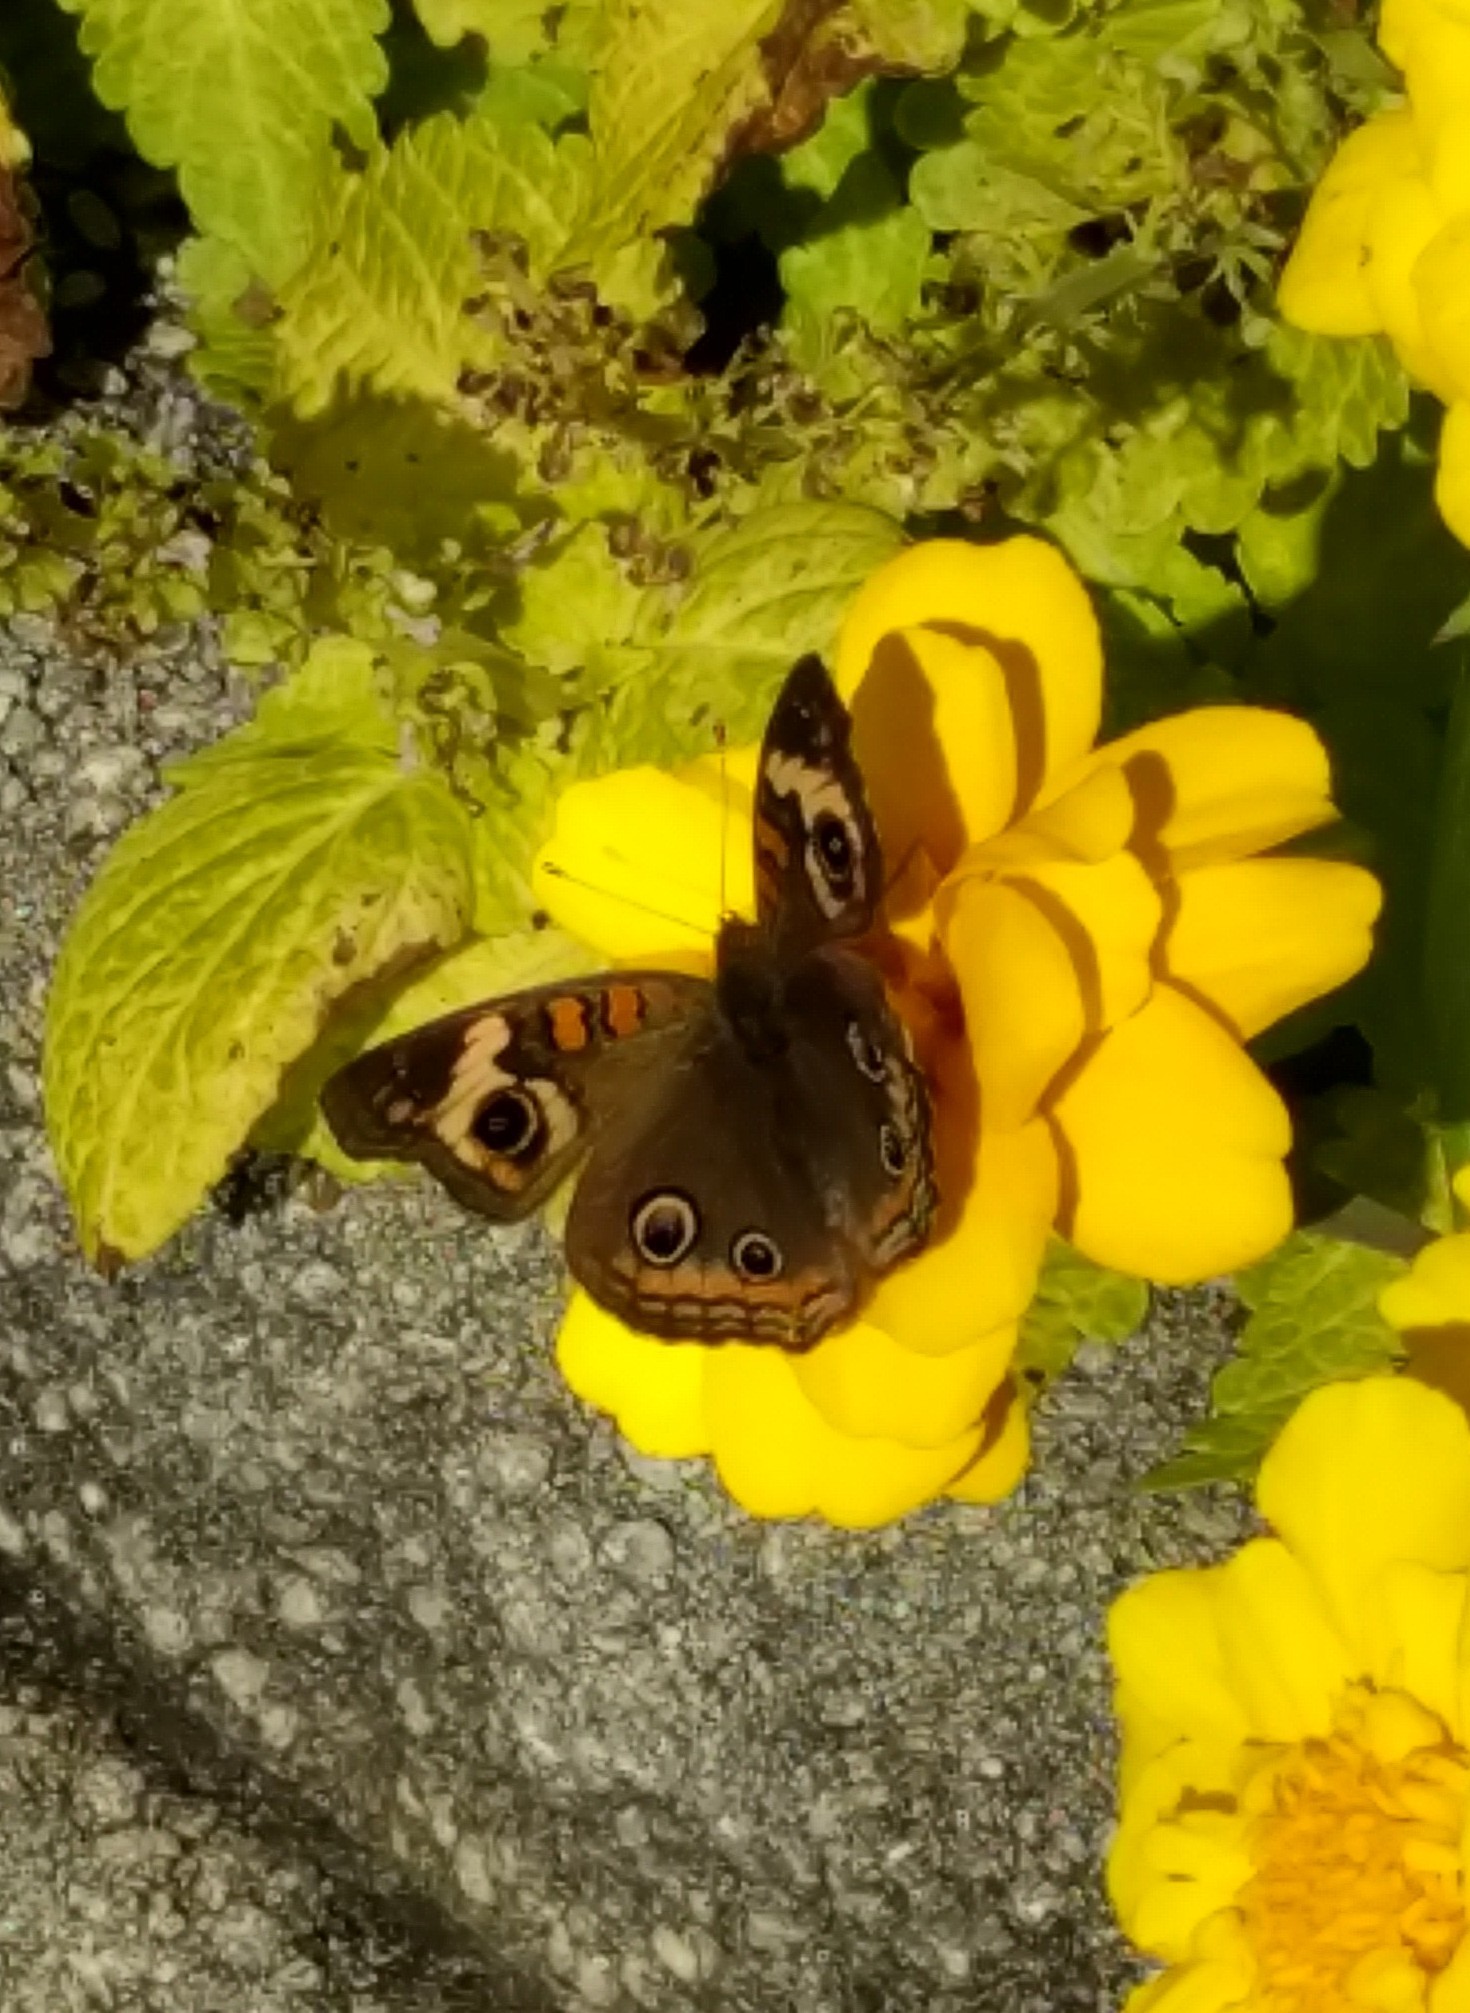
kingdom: Animalia
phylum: Arthropoda
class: Insecta
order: Lepidoptera
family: Nymphalidae
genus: Junonia
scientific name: Junonia coenia
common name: Common buckeye
